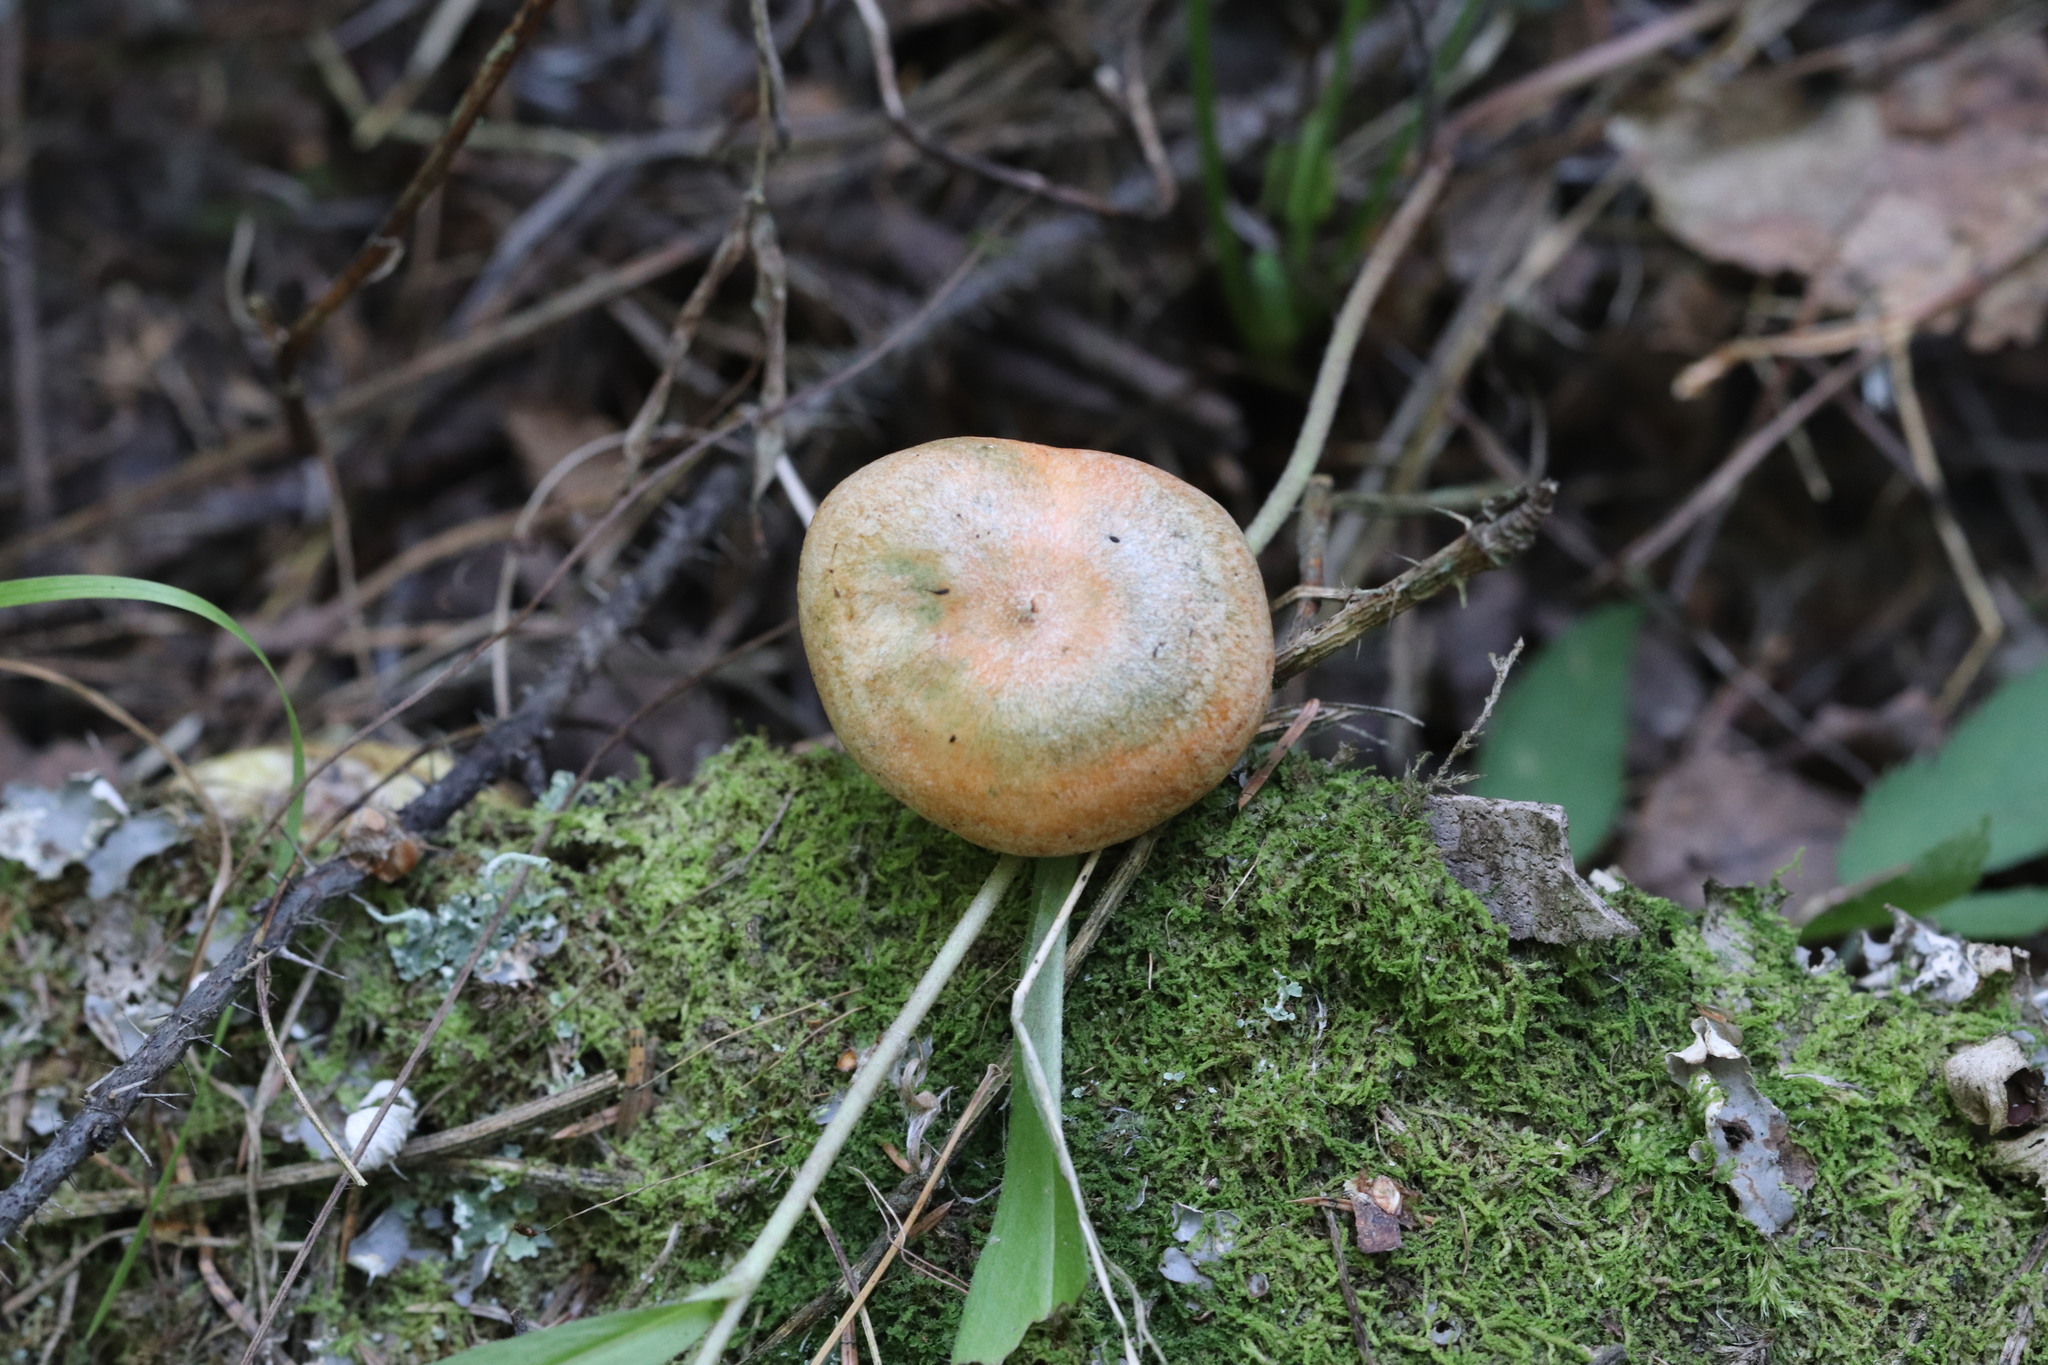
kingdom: Fungi
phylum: Basidiomycota
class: Agaricomycetes
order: Russulales
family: Russulaceae
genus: Lactarius
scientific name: Lactarius deliciosus
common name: Saffron milk-cap
